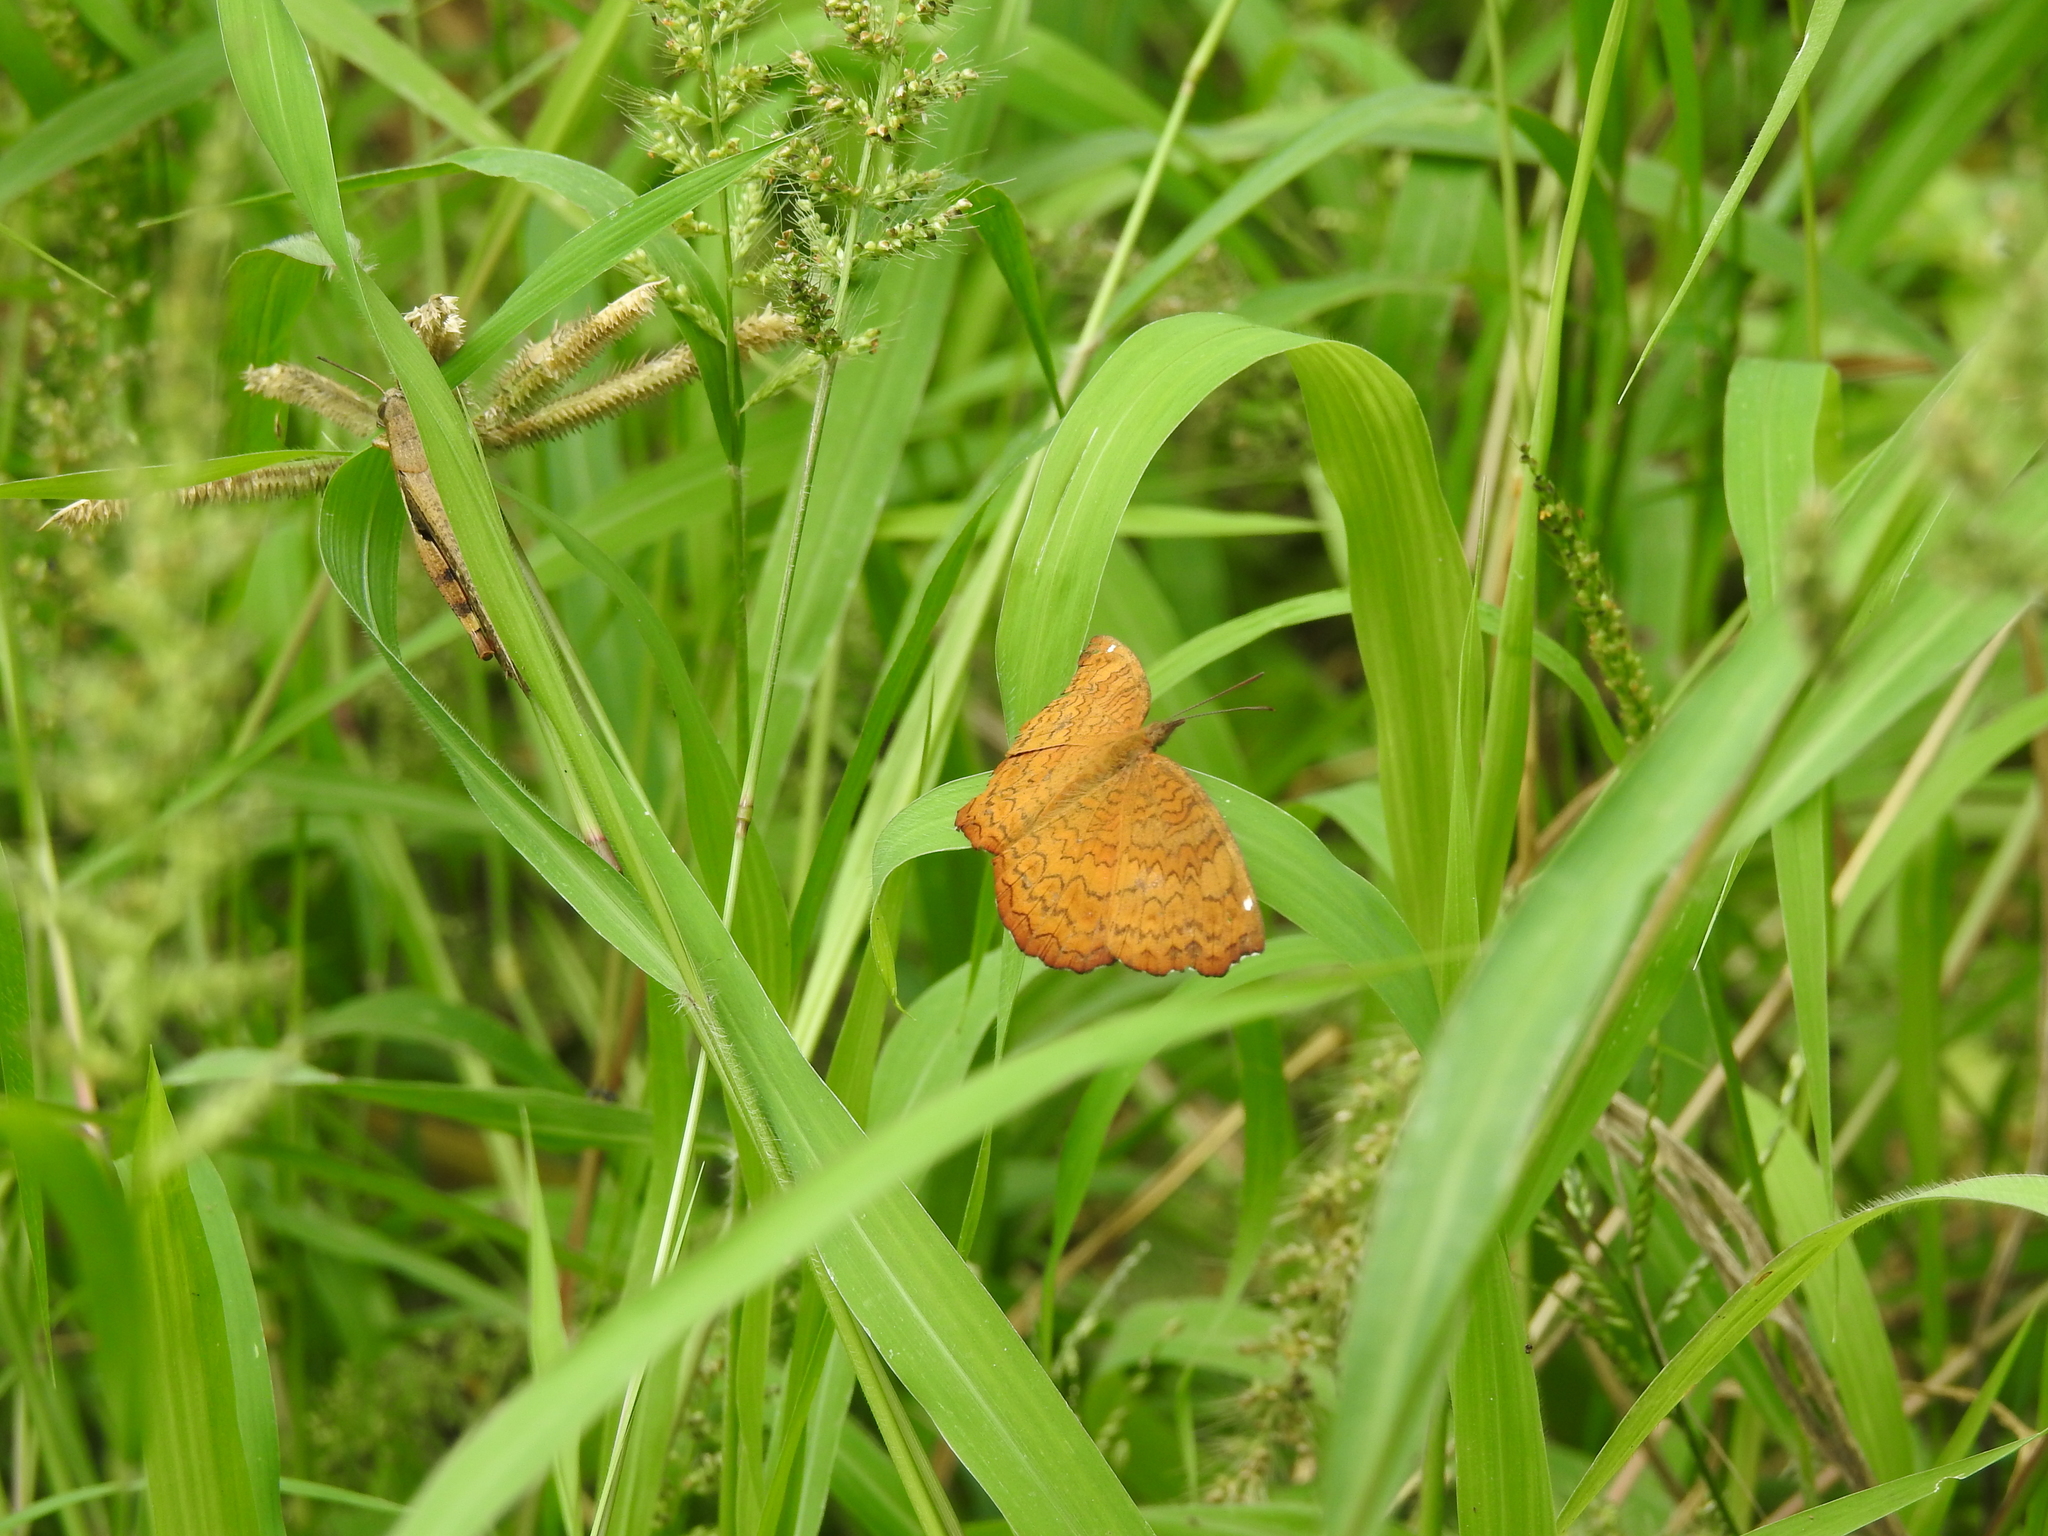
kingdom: Animalia
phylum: Arthropoda
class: Insecta
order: Lepidoptera
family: Nymphalidae
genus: Ariadne
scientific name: Ariadne merione
